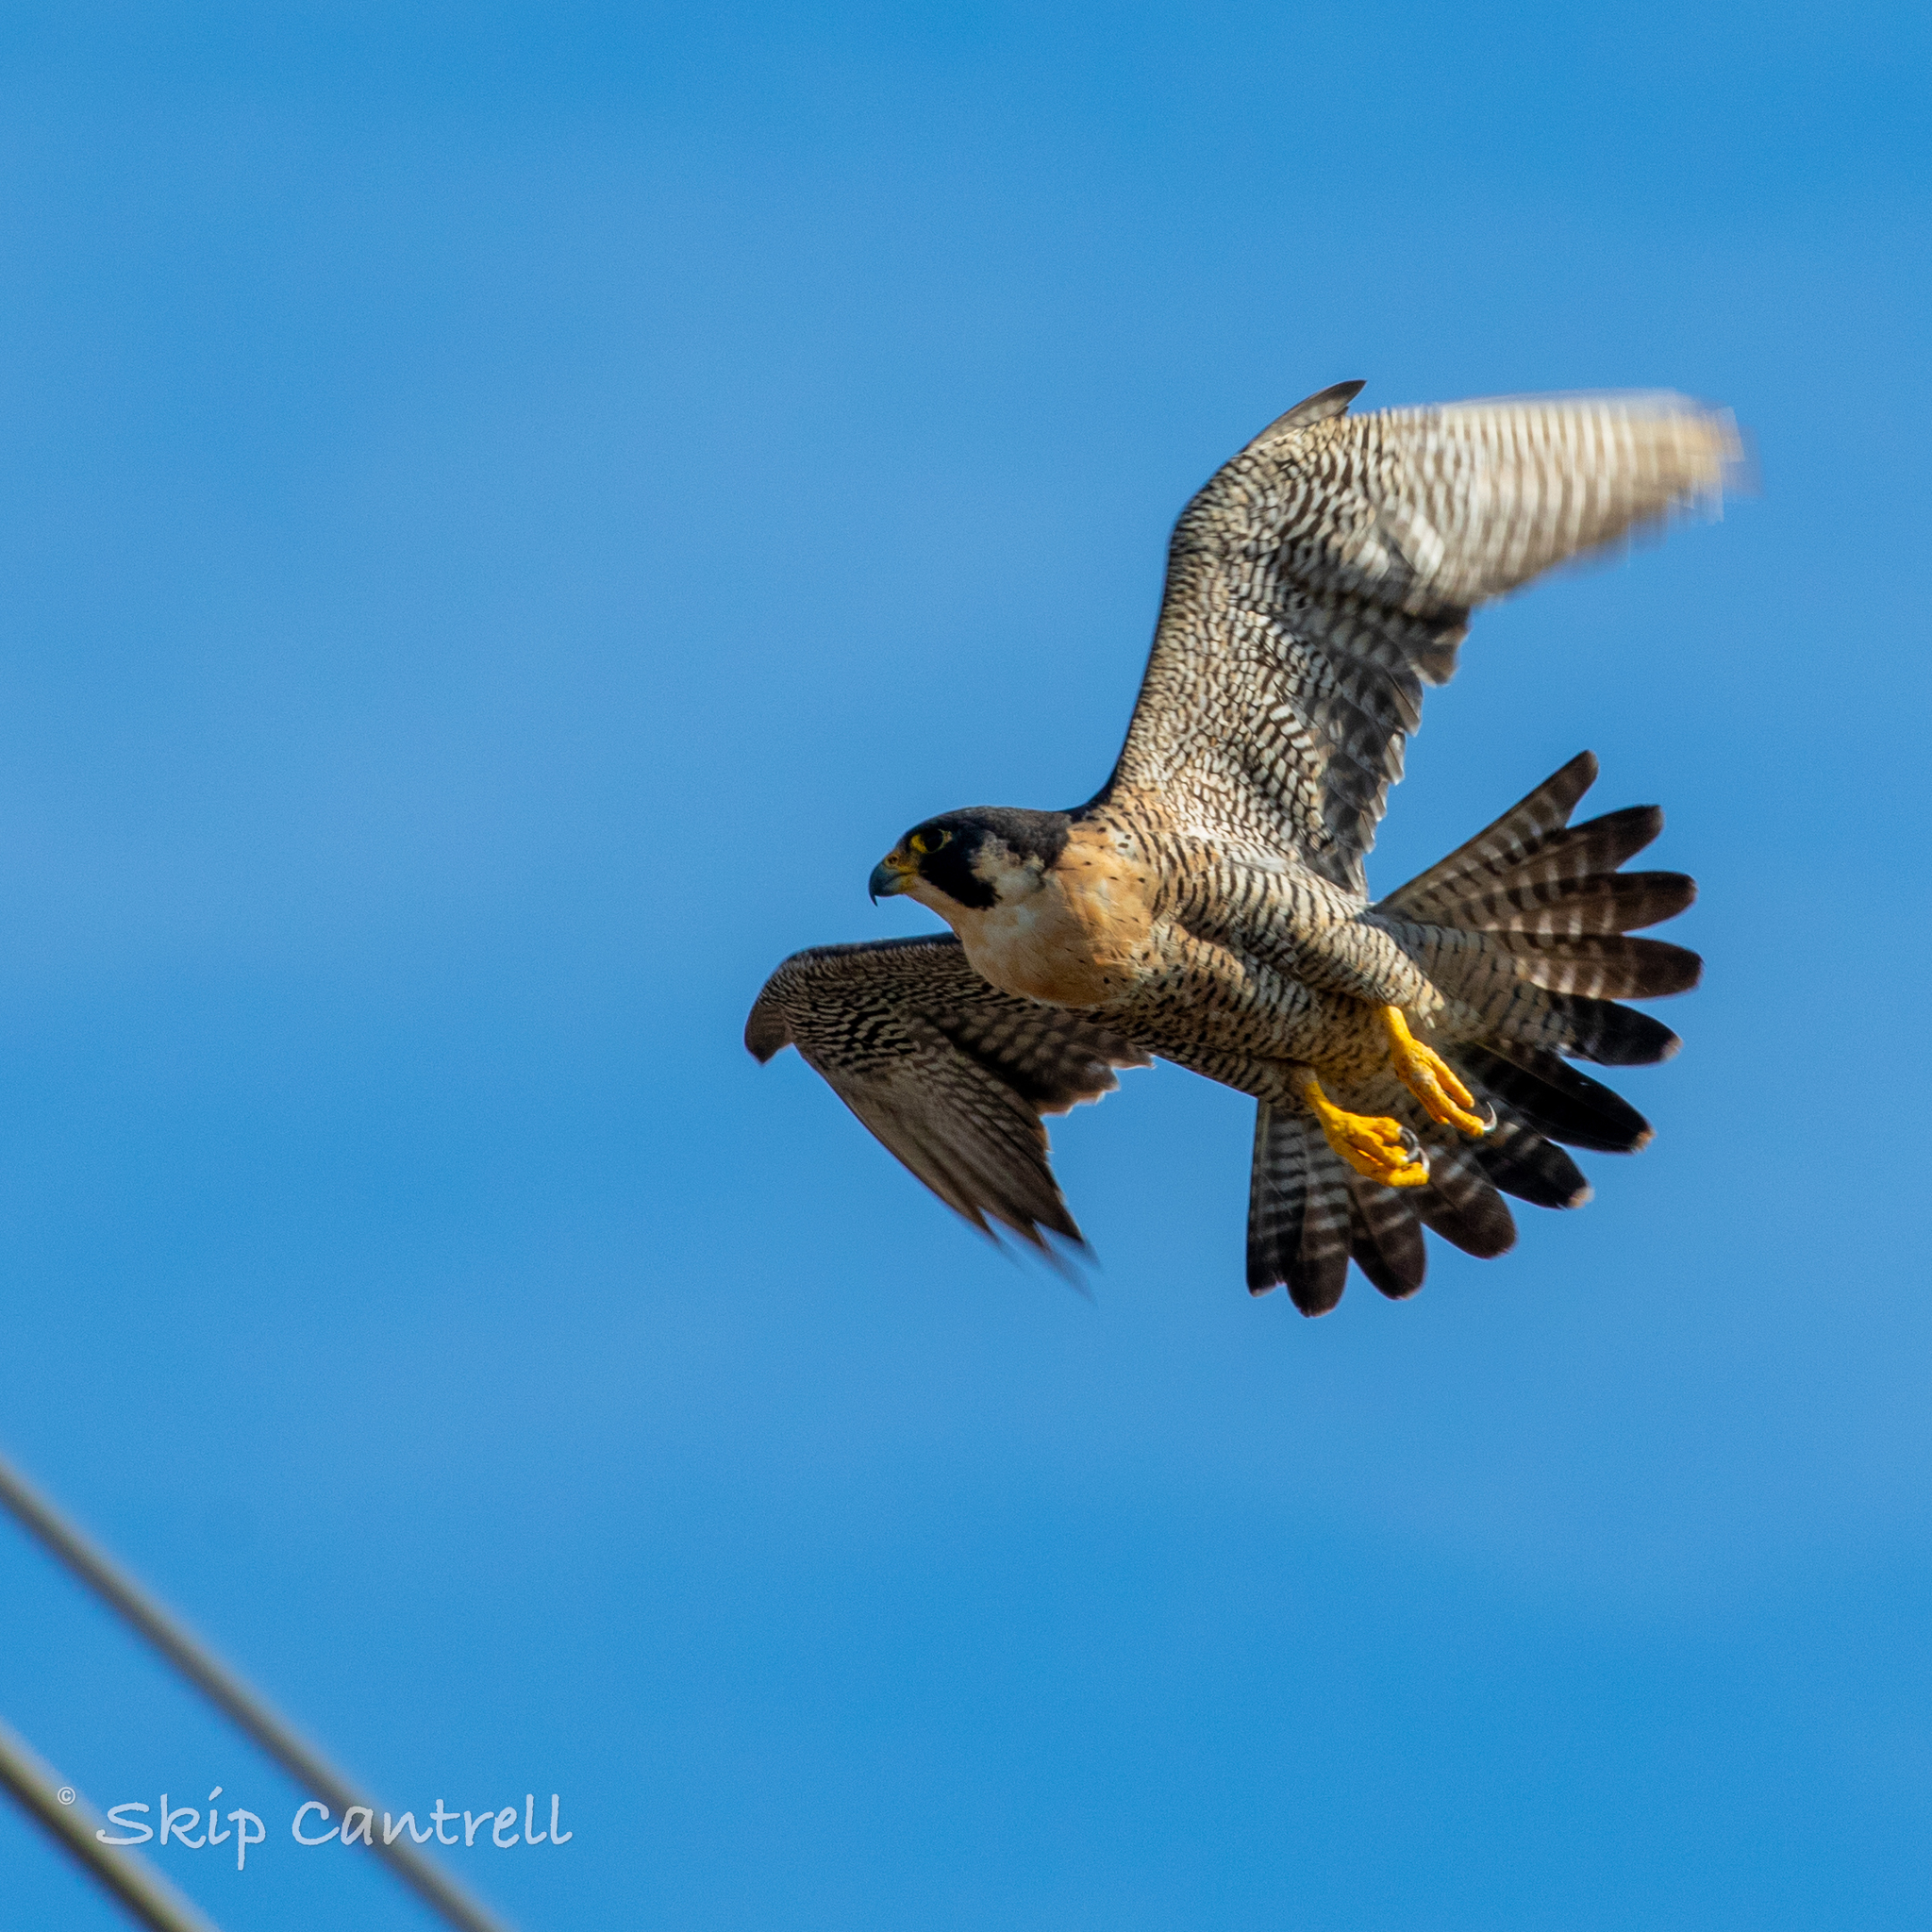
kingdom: Animalia
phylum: Chordata
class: Aves
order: Falconiformes
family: Falconidae
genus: Falco
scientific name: Falco peregrinus
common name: Peregrine falcon
